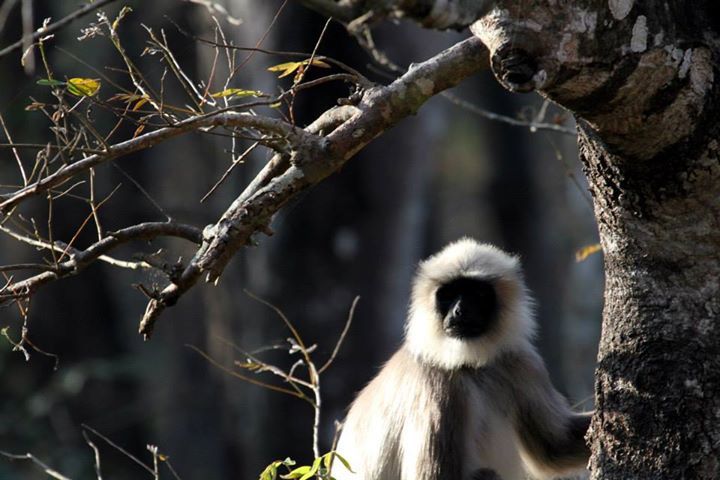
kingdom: Animalia
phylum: Chordata
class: Mammalia
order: Primates
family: Cercopithecidae
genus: Semnopithecus
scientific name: Semnopithecus hypoleucos
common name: Black-footed gray langur
